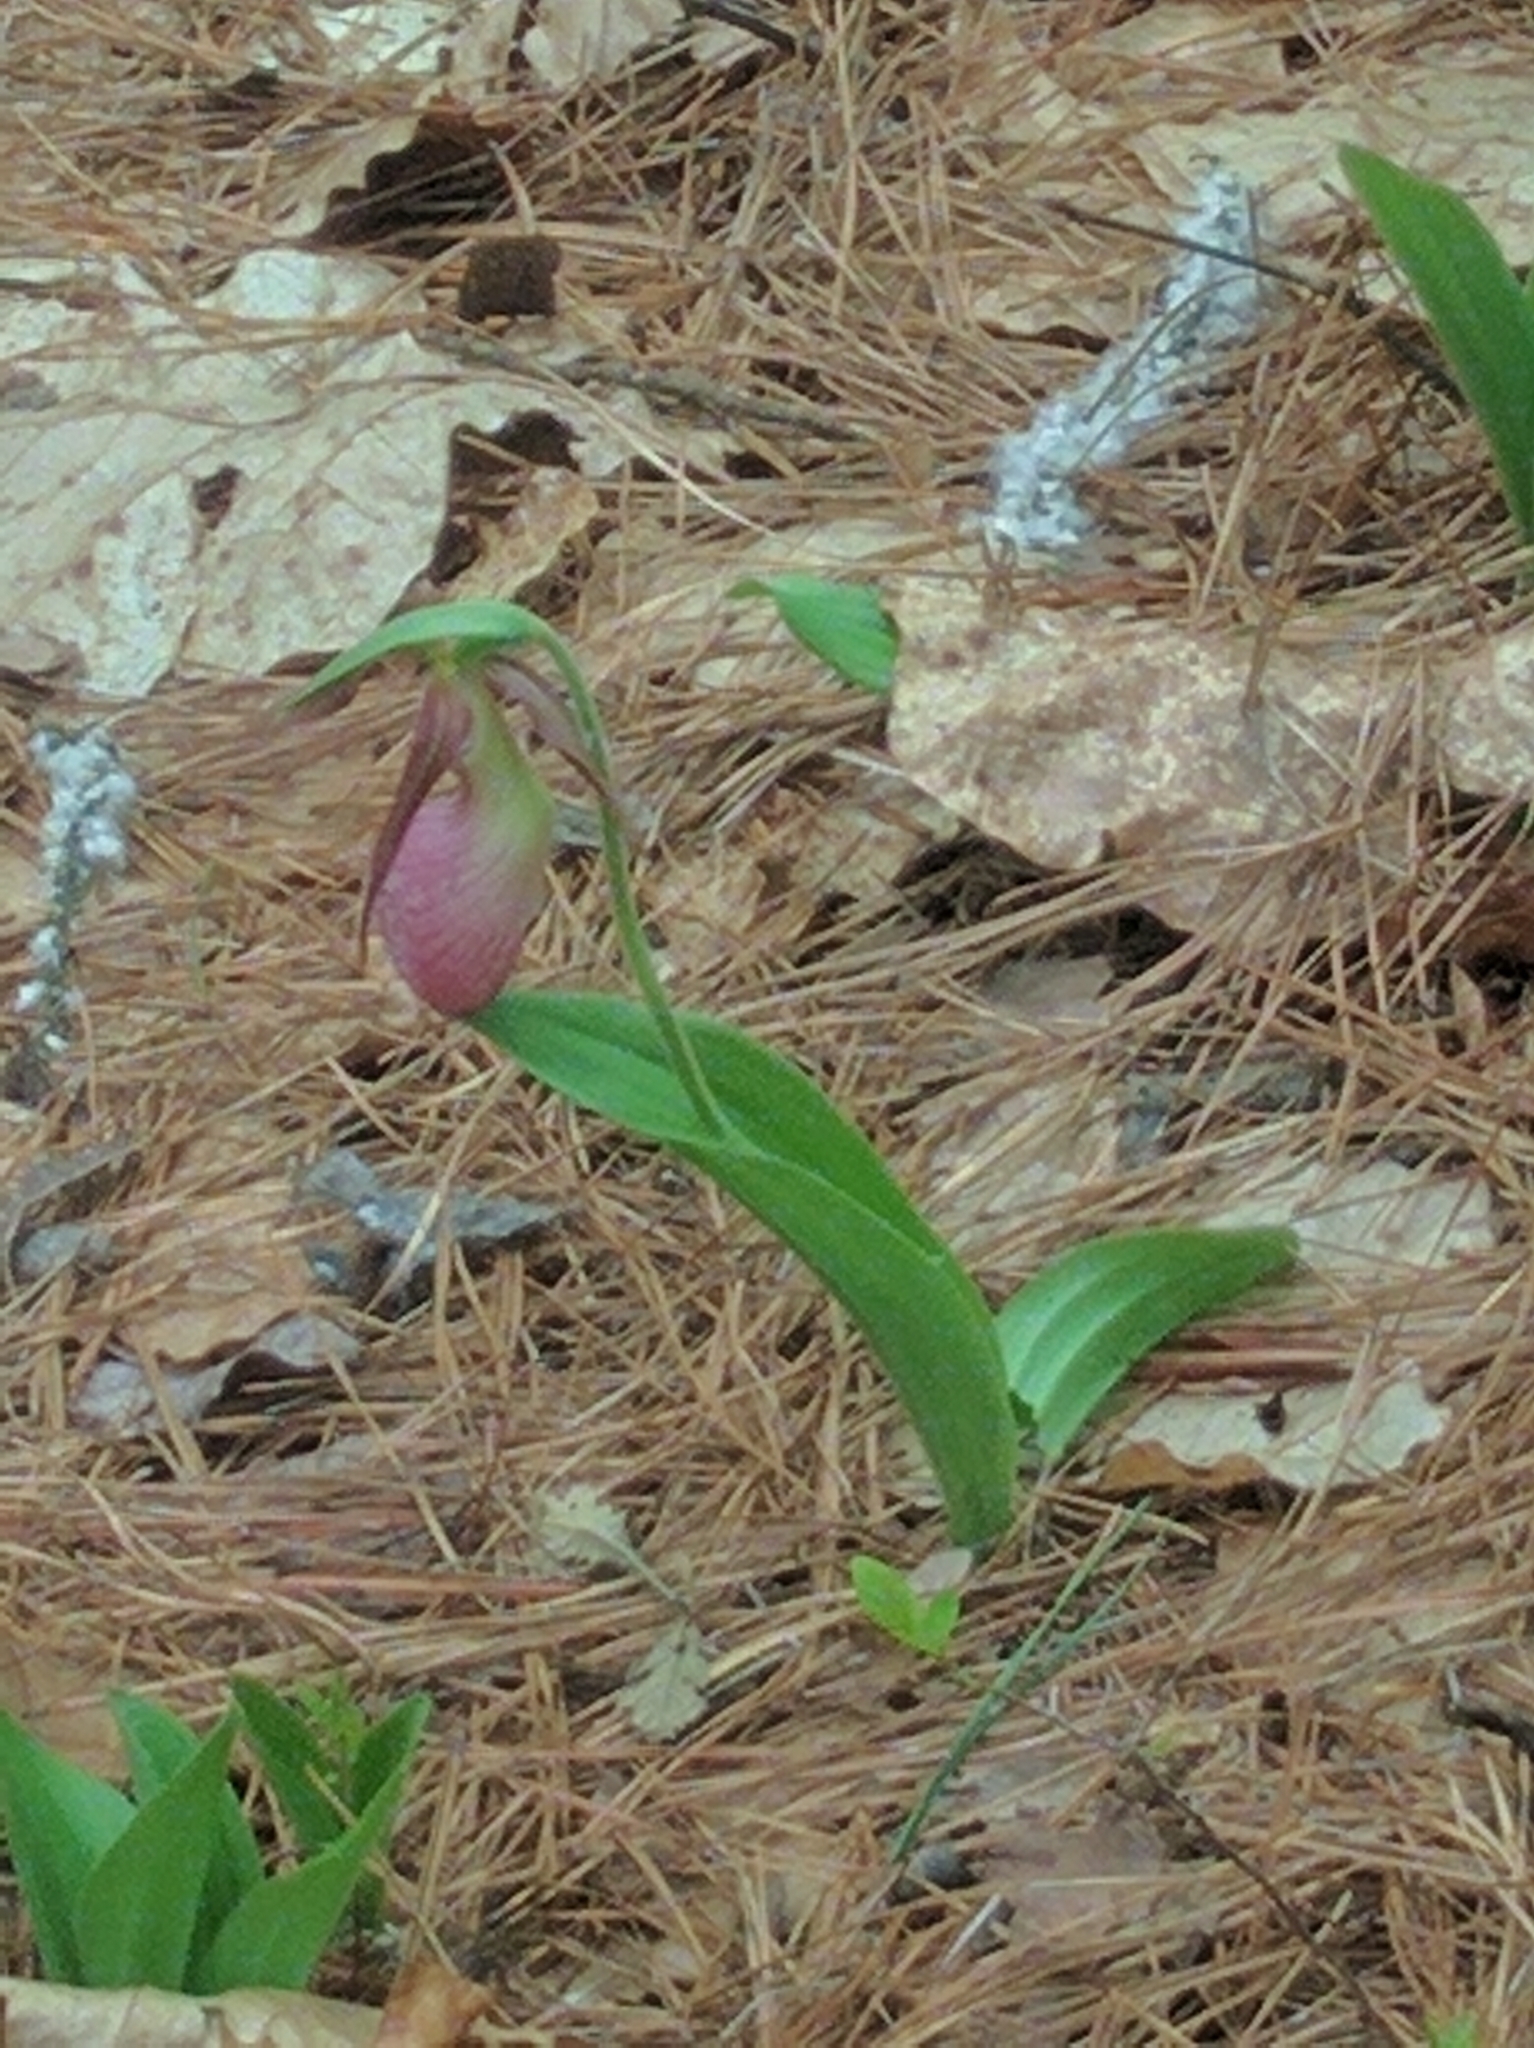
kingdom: Plantae
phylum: Tracheophyta
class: Liliopsida
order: Asparagales
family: Orchidaceae
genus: Cypripedium
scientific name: Cypripedium acaule
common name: Pink lady's-slipper
